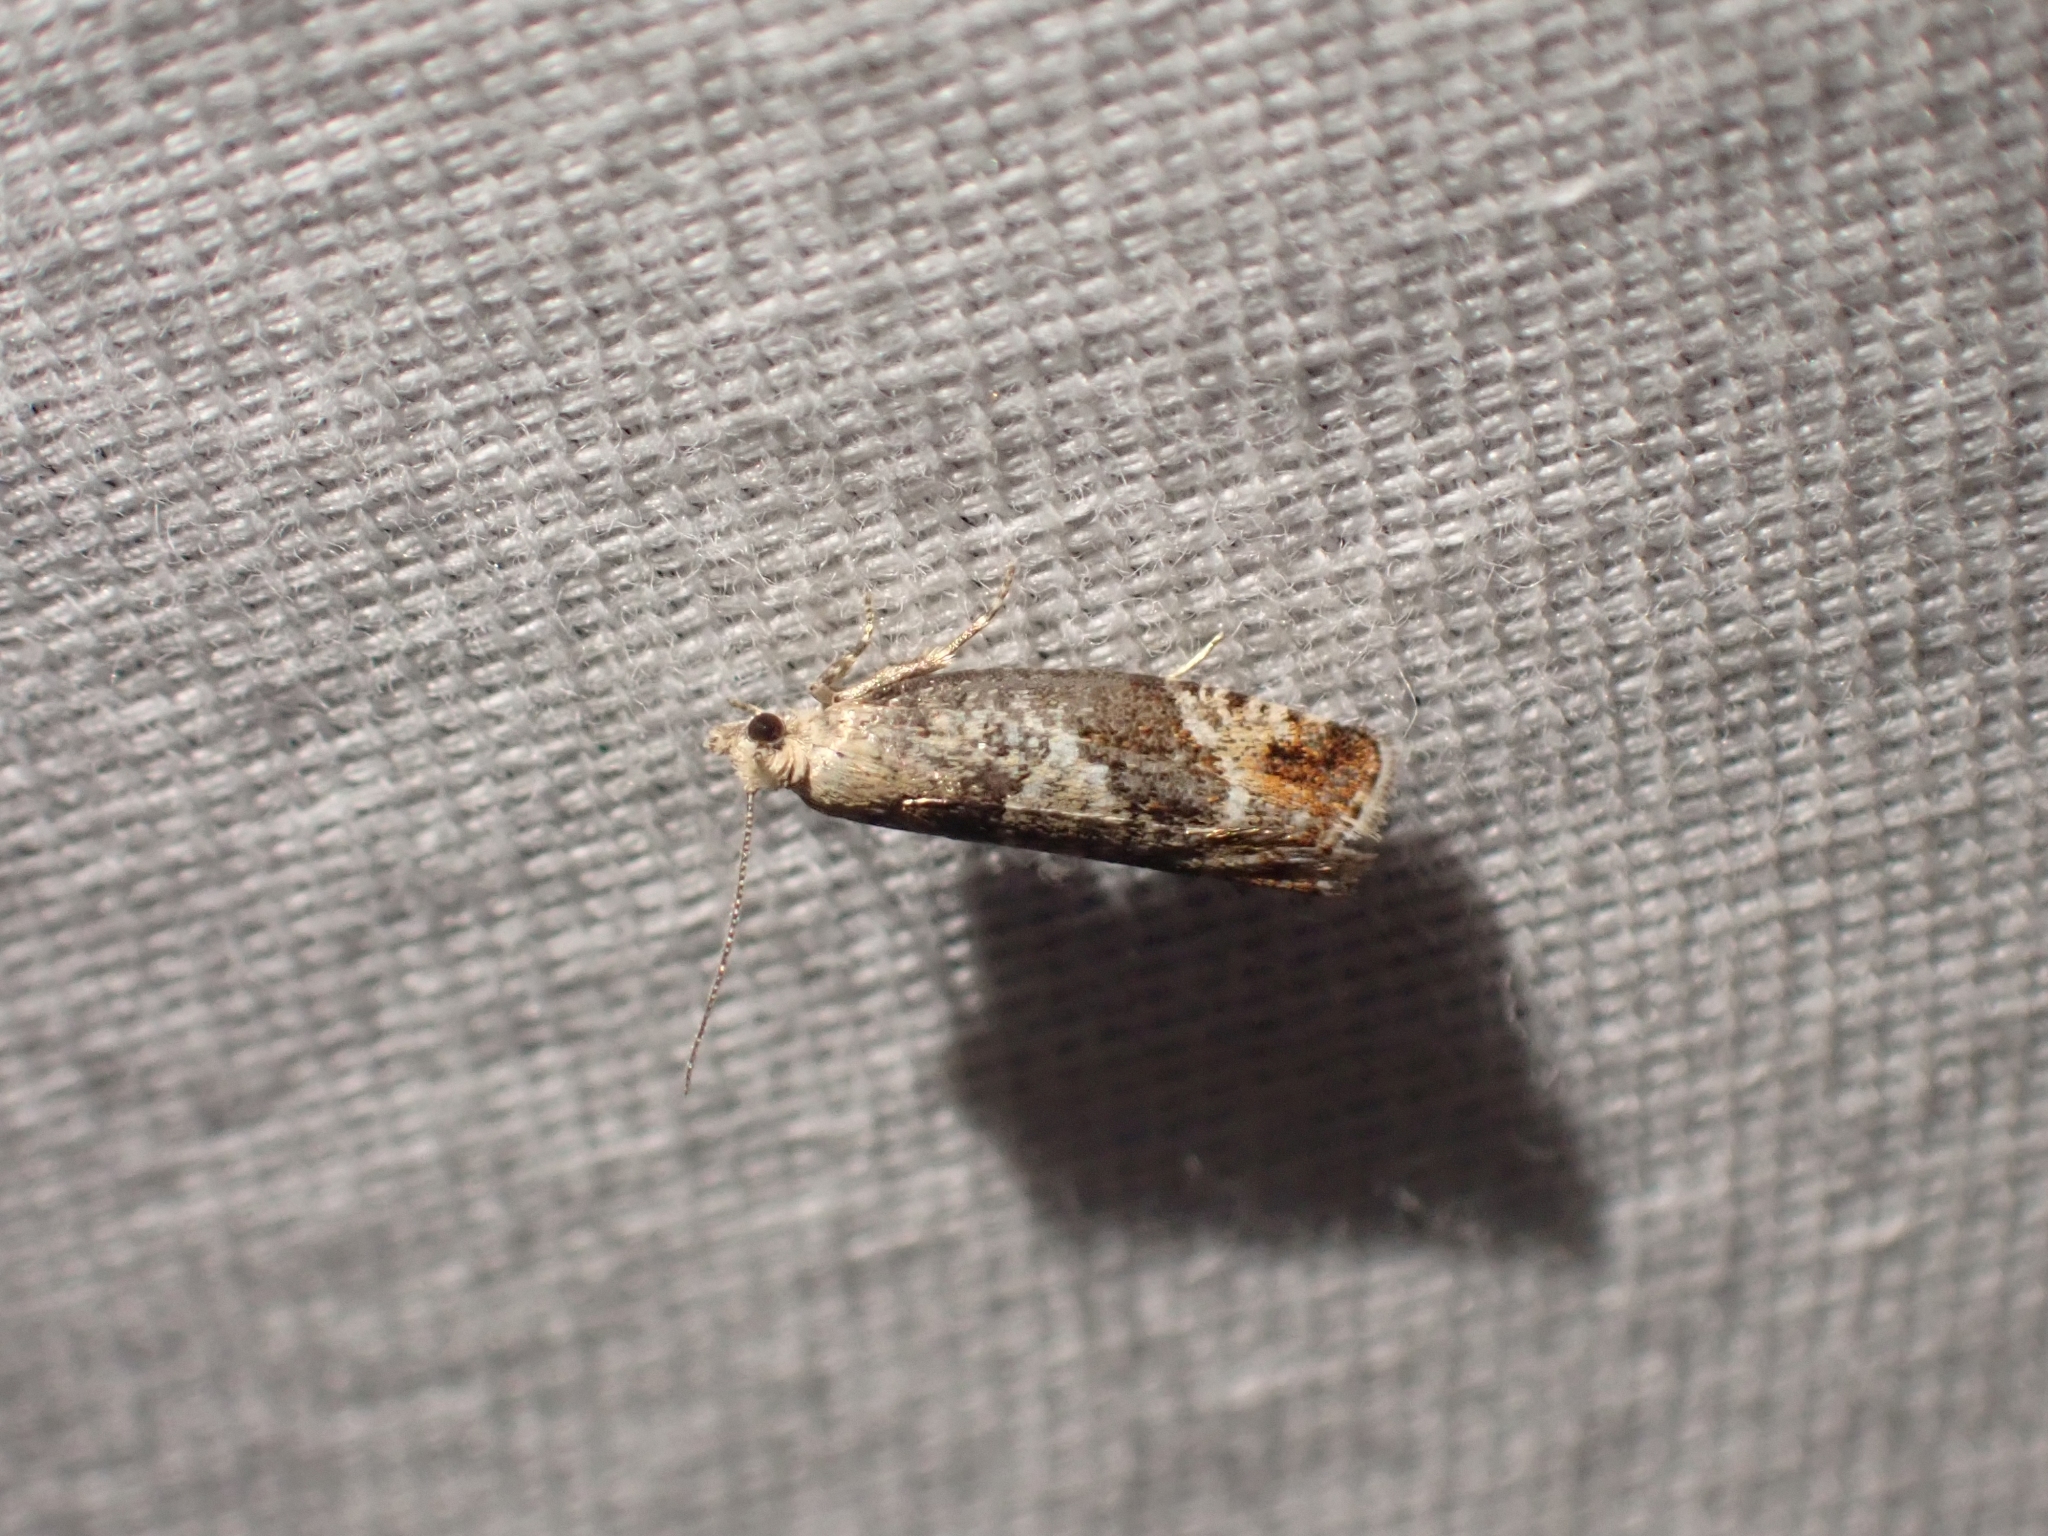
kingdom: Animalia
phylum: Arthropoda
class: Insecta
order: Lepidoptera
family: Tortricidae
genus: Epinotia
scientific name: Epinotia medioplagata
